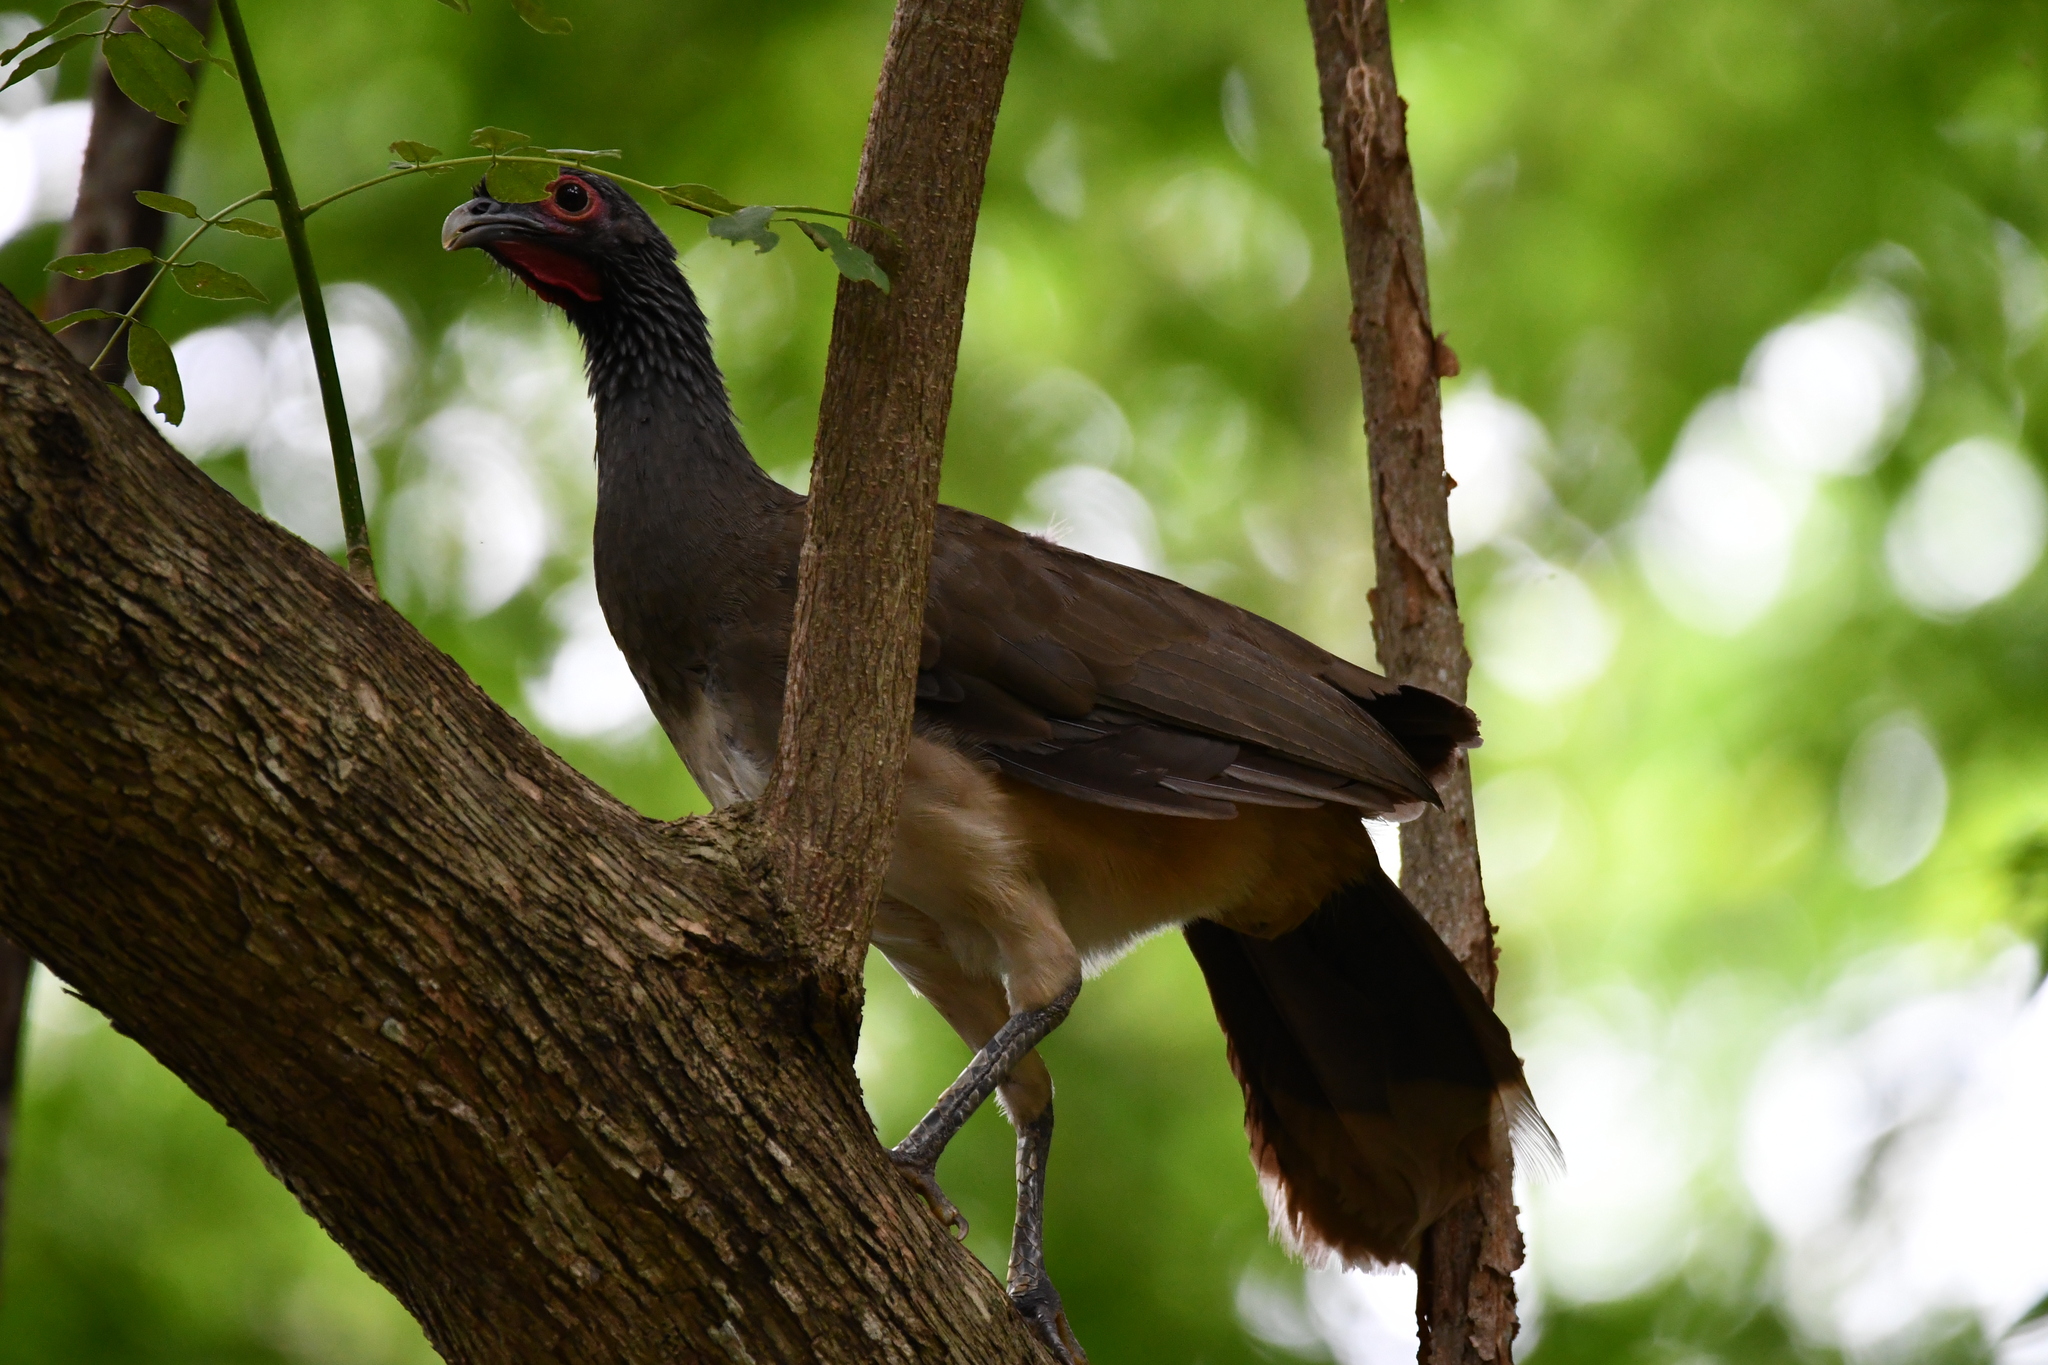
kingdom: Animalia
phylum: Chordata
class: Aves
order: Galliformes
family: Cracidae
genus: Ortalis
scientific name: Ortalis poliocephala
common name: West mexican chachalaca
